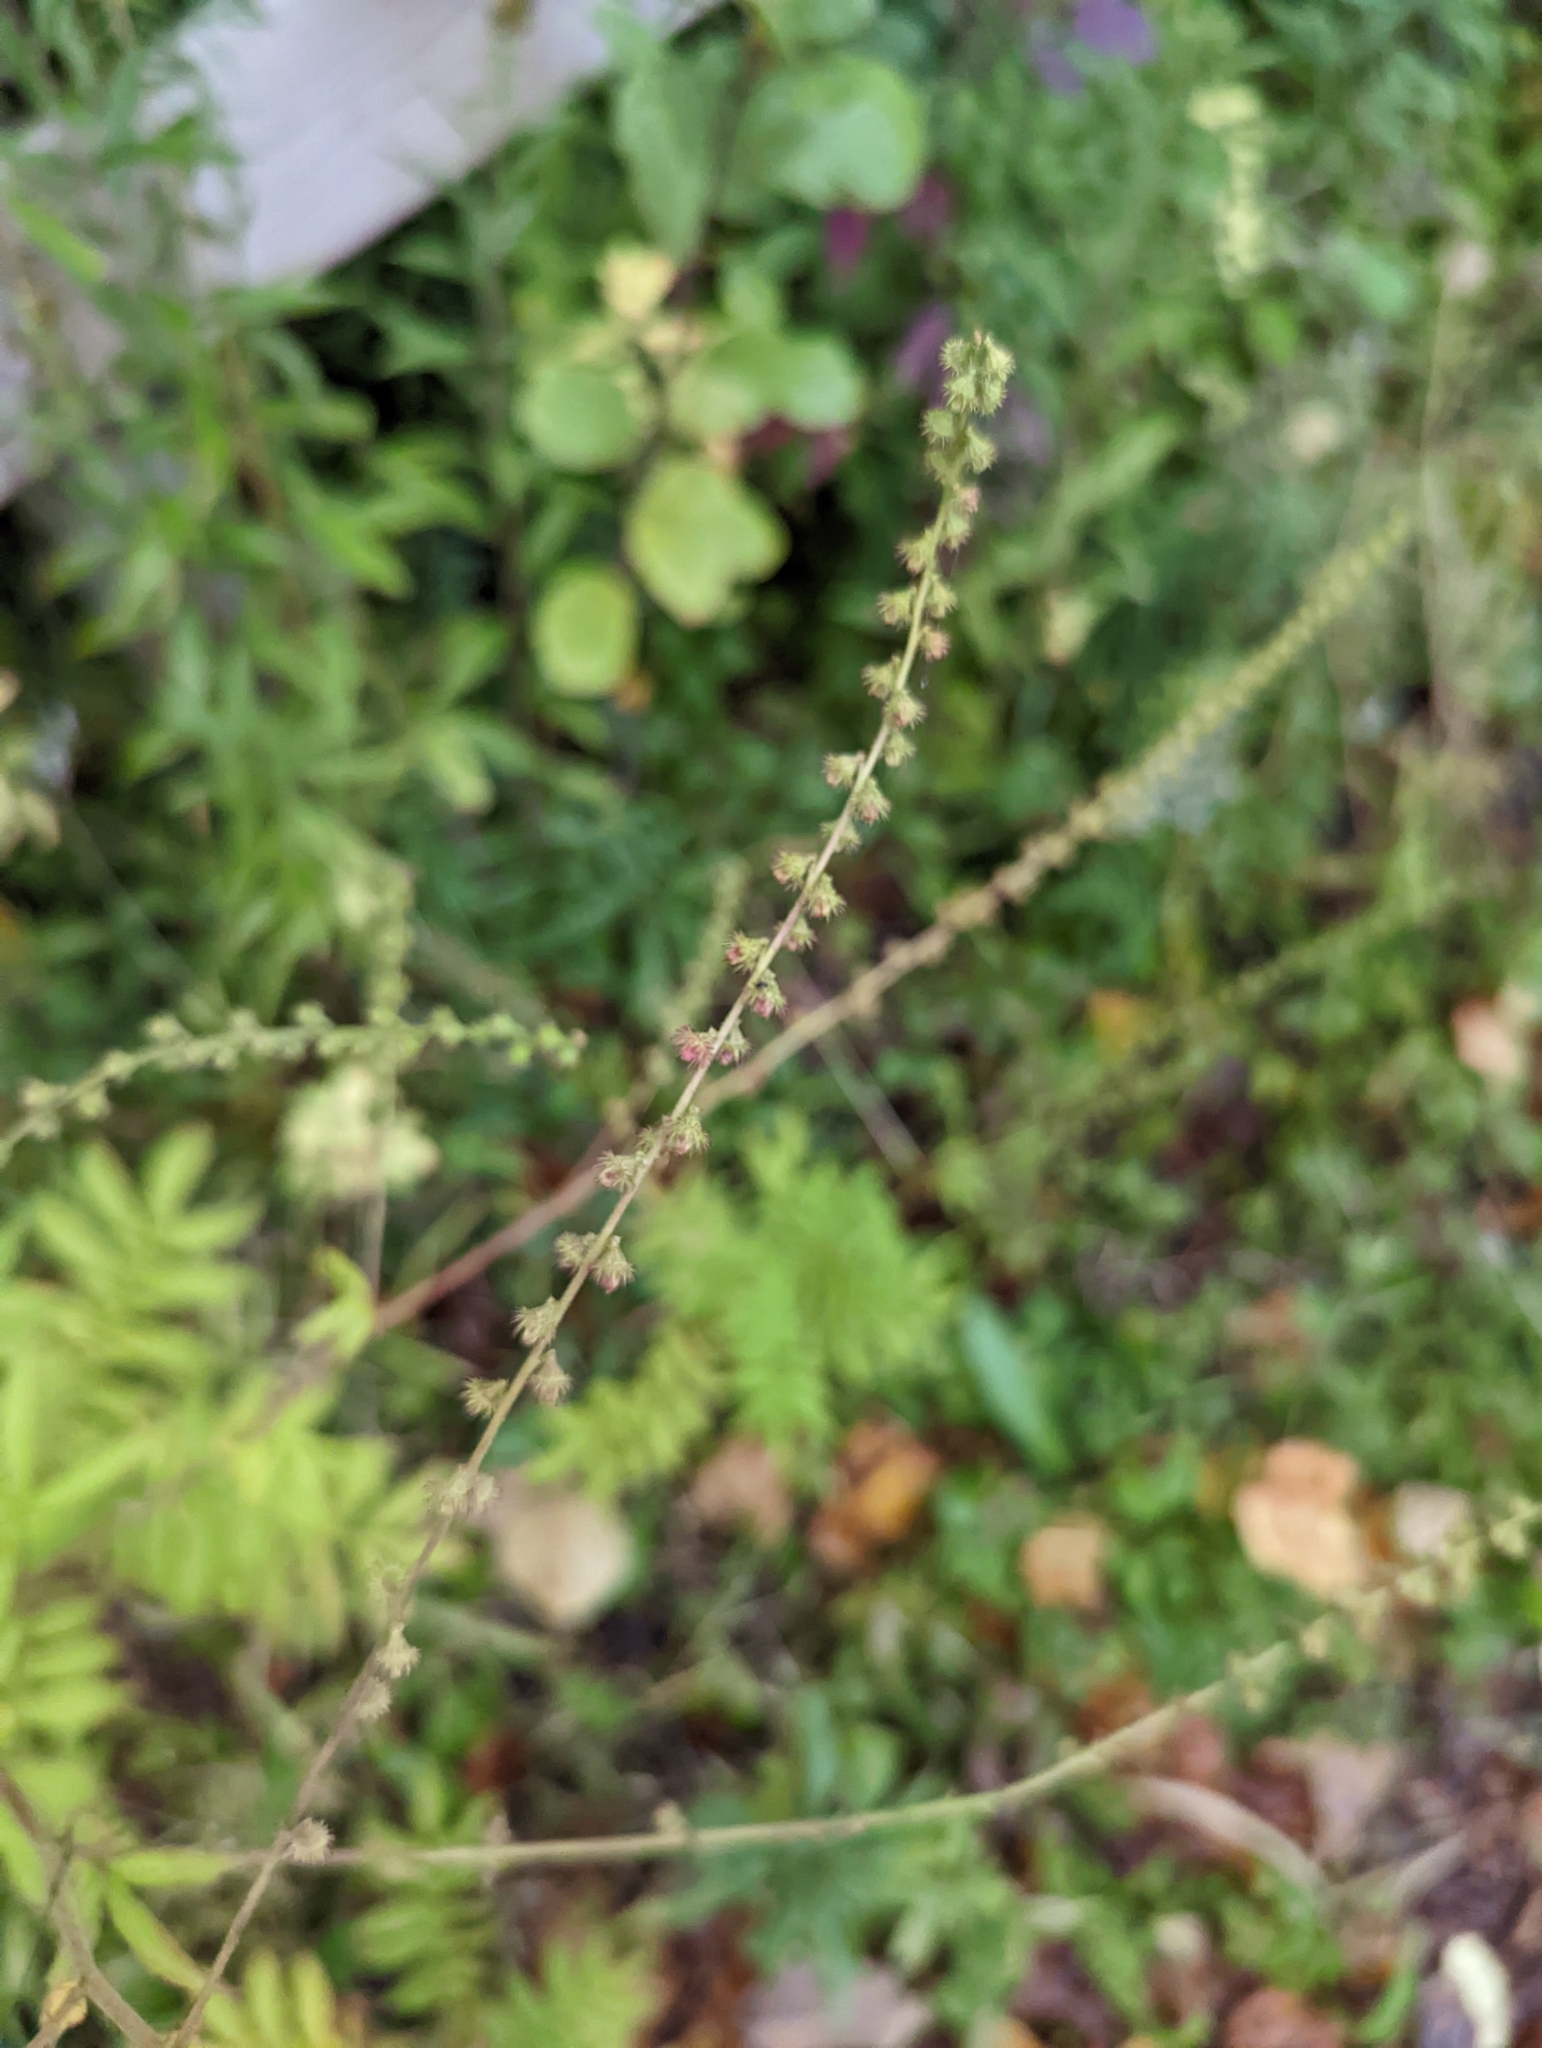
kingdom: Plantae
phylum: Tracheophyta
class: Magnoliopsida
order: Rosales
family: Rosaceae
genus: Agrimonia
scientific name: Agrimonia parviflora
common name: Harvest-lice
